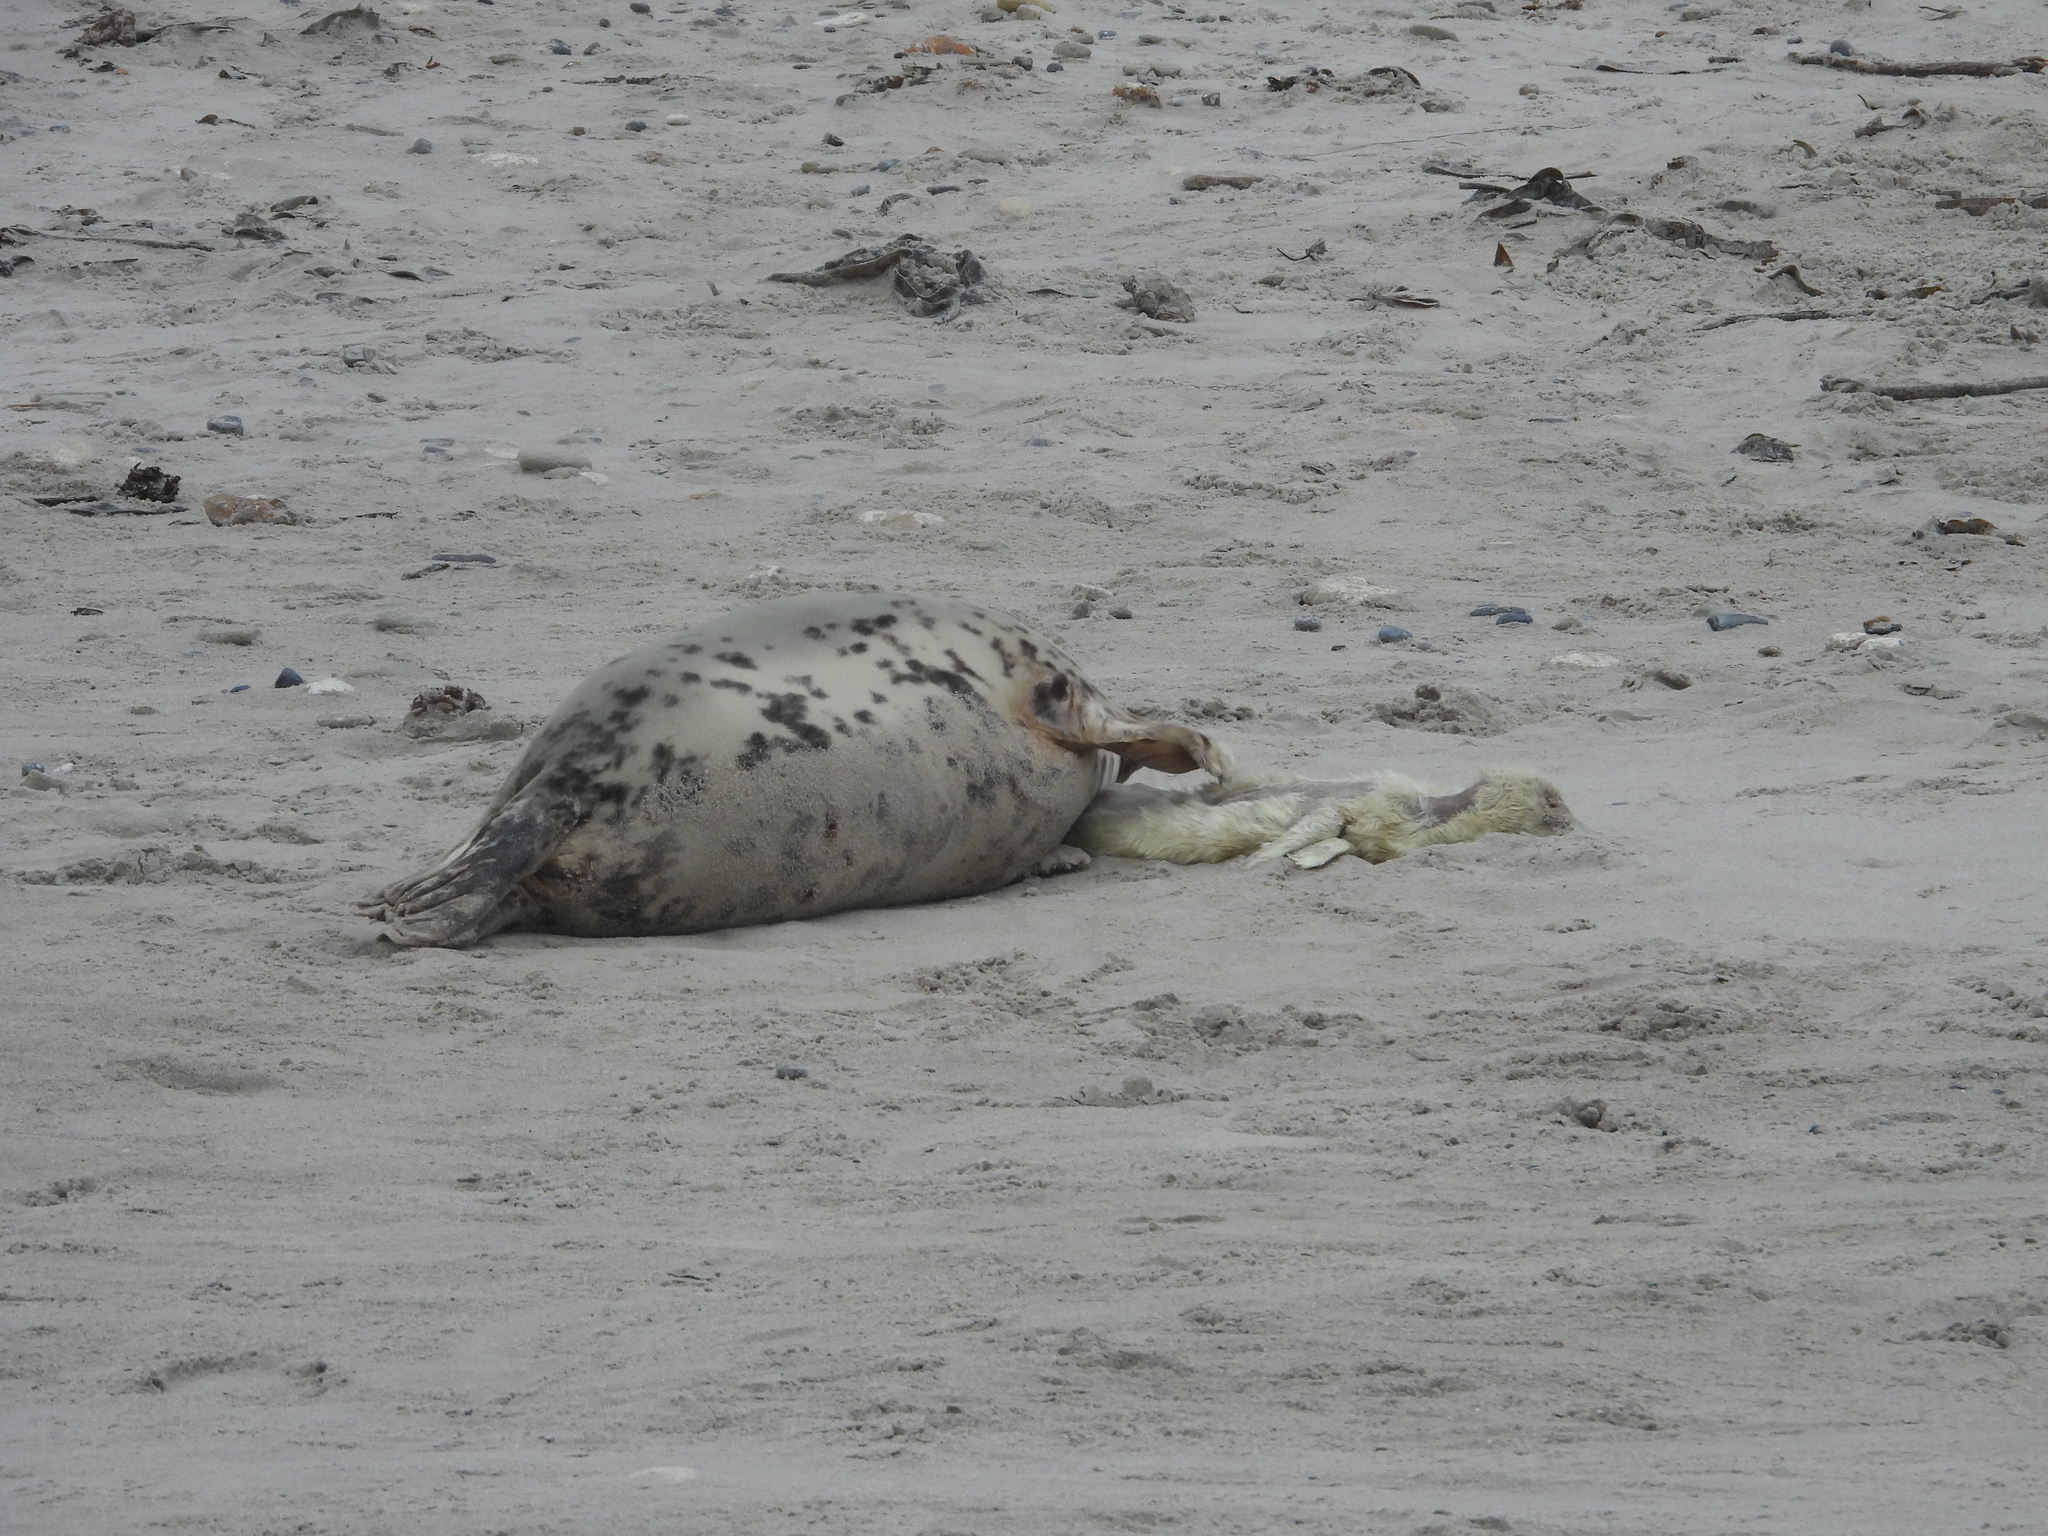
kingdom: Animalia
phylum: Chordata
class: Mammalia
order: Carnivora
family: Phocidae
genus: Halichoerus
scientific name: Halichoerus grypus
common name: Grey seal
